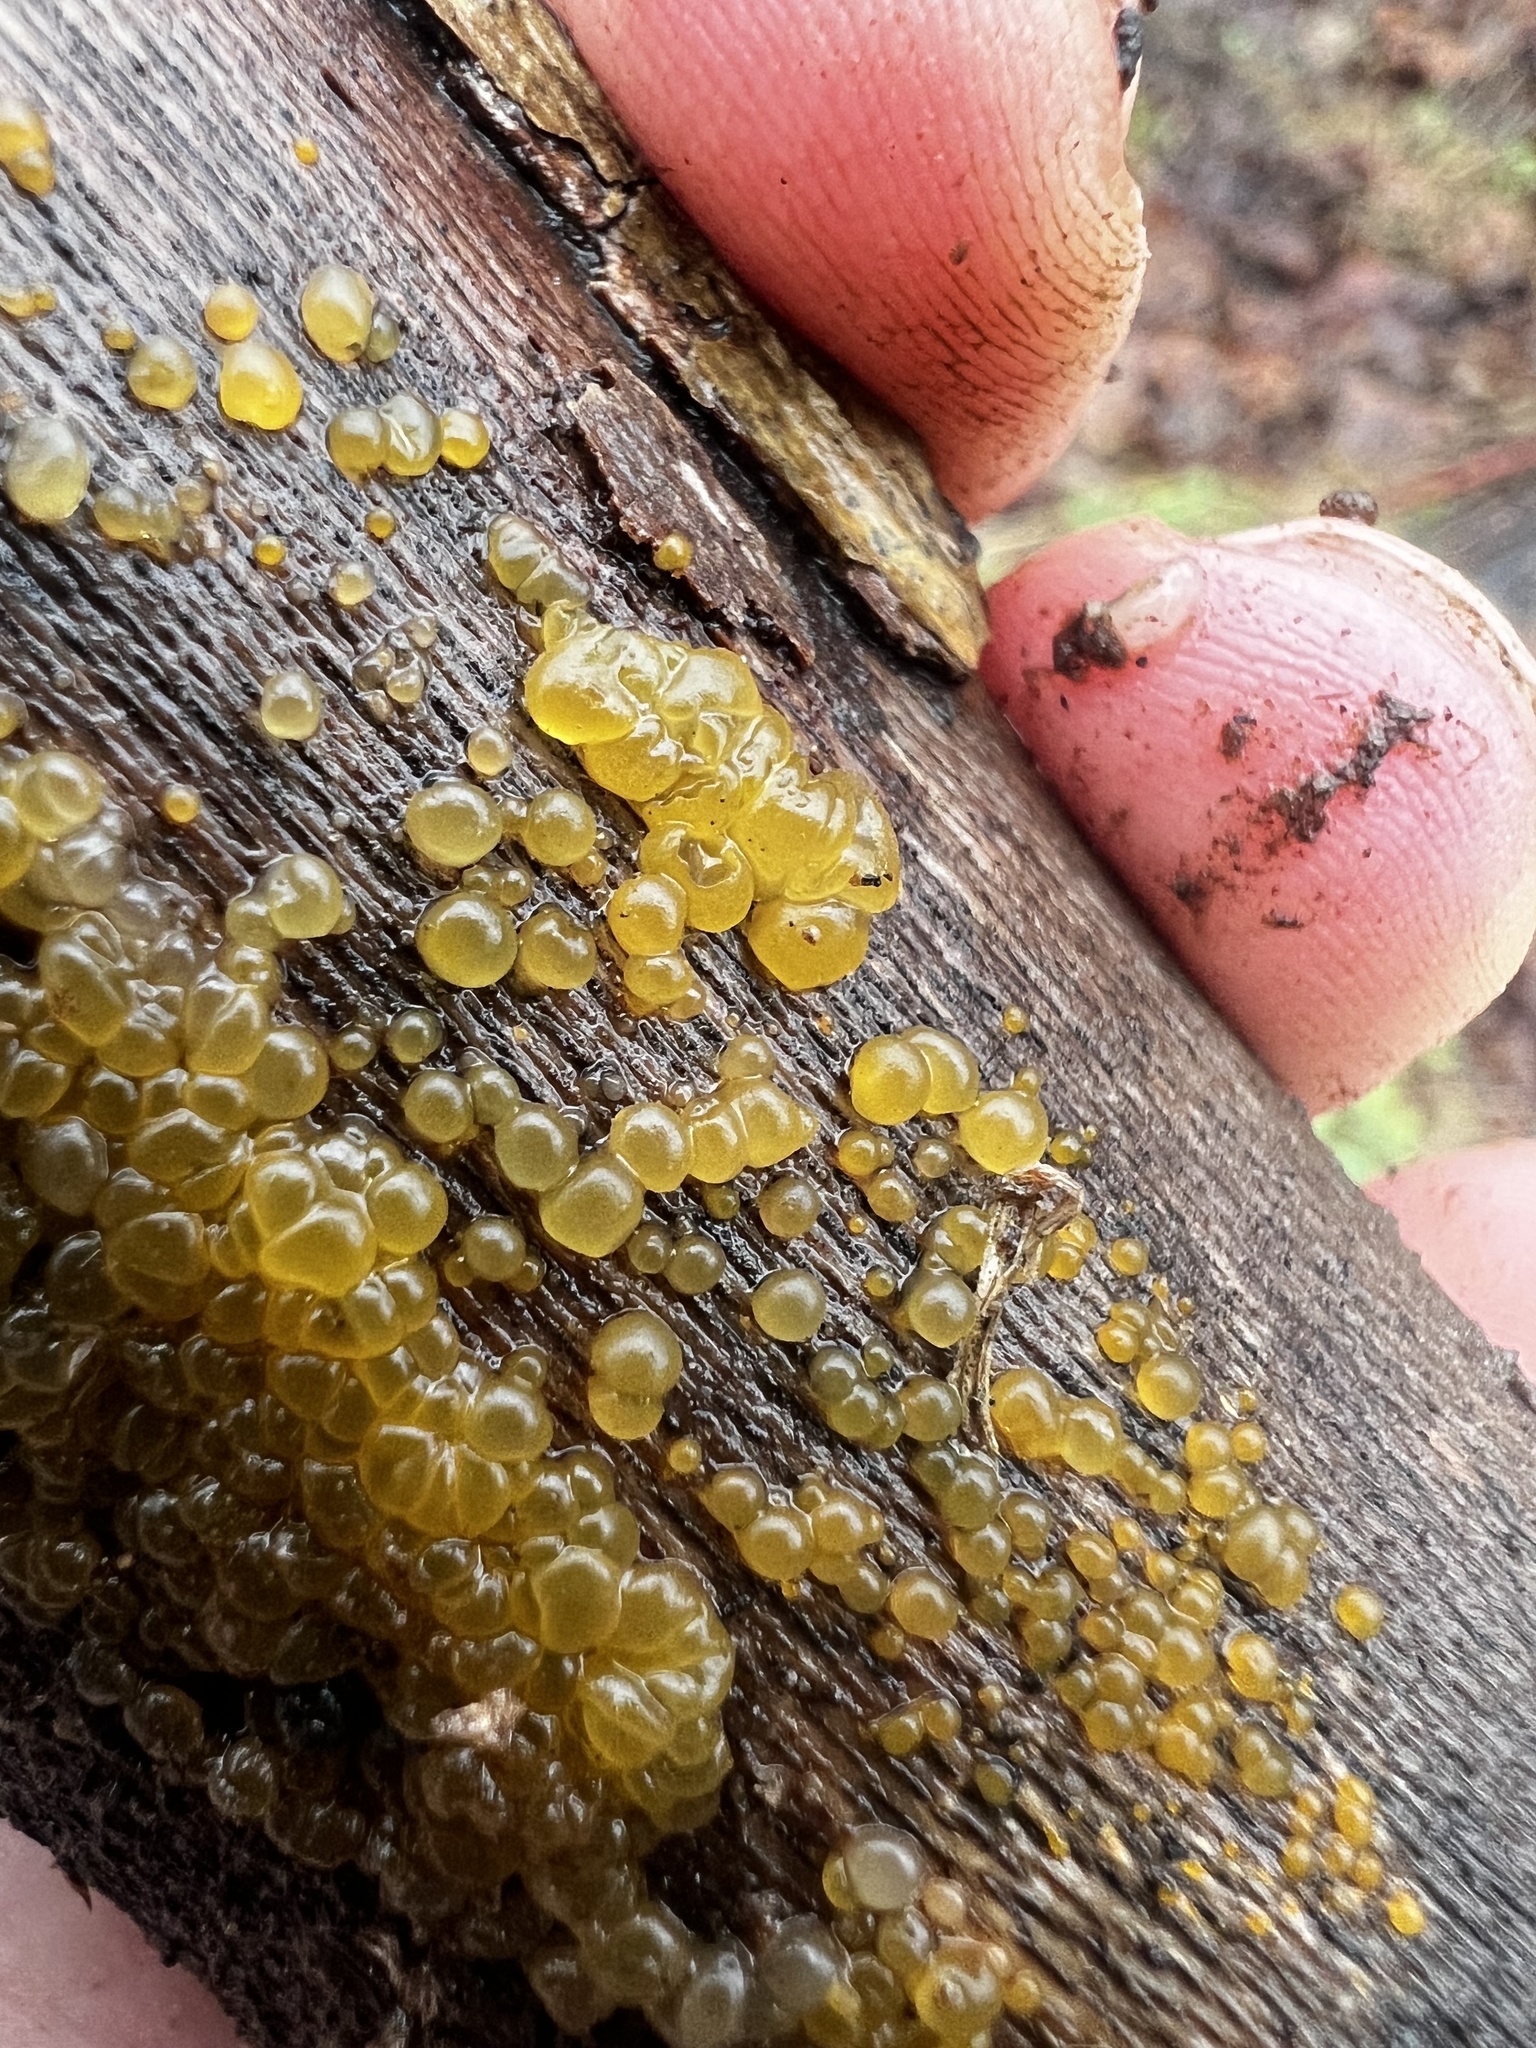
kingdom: Fungi
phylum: Basidiomycota
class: Dacrymycetes
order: Dacrymycetales
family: Dacrymycetaceae
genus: Dacrymyces
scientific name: Dacrymyces stillatus
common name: Common jelly spot
